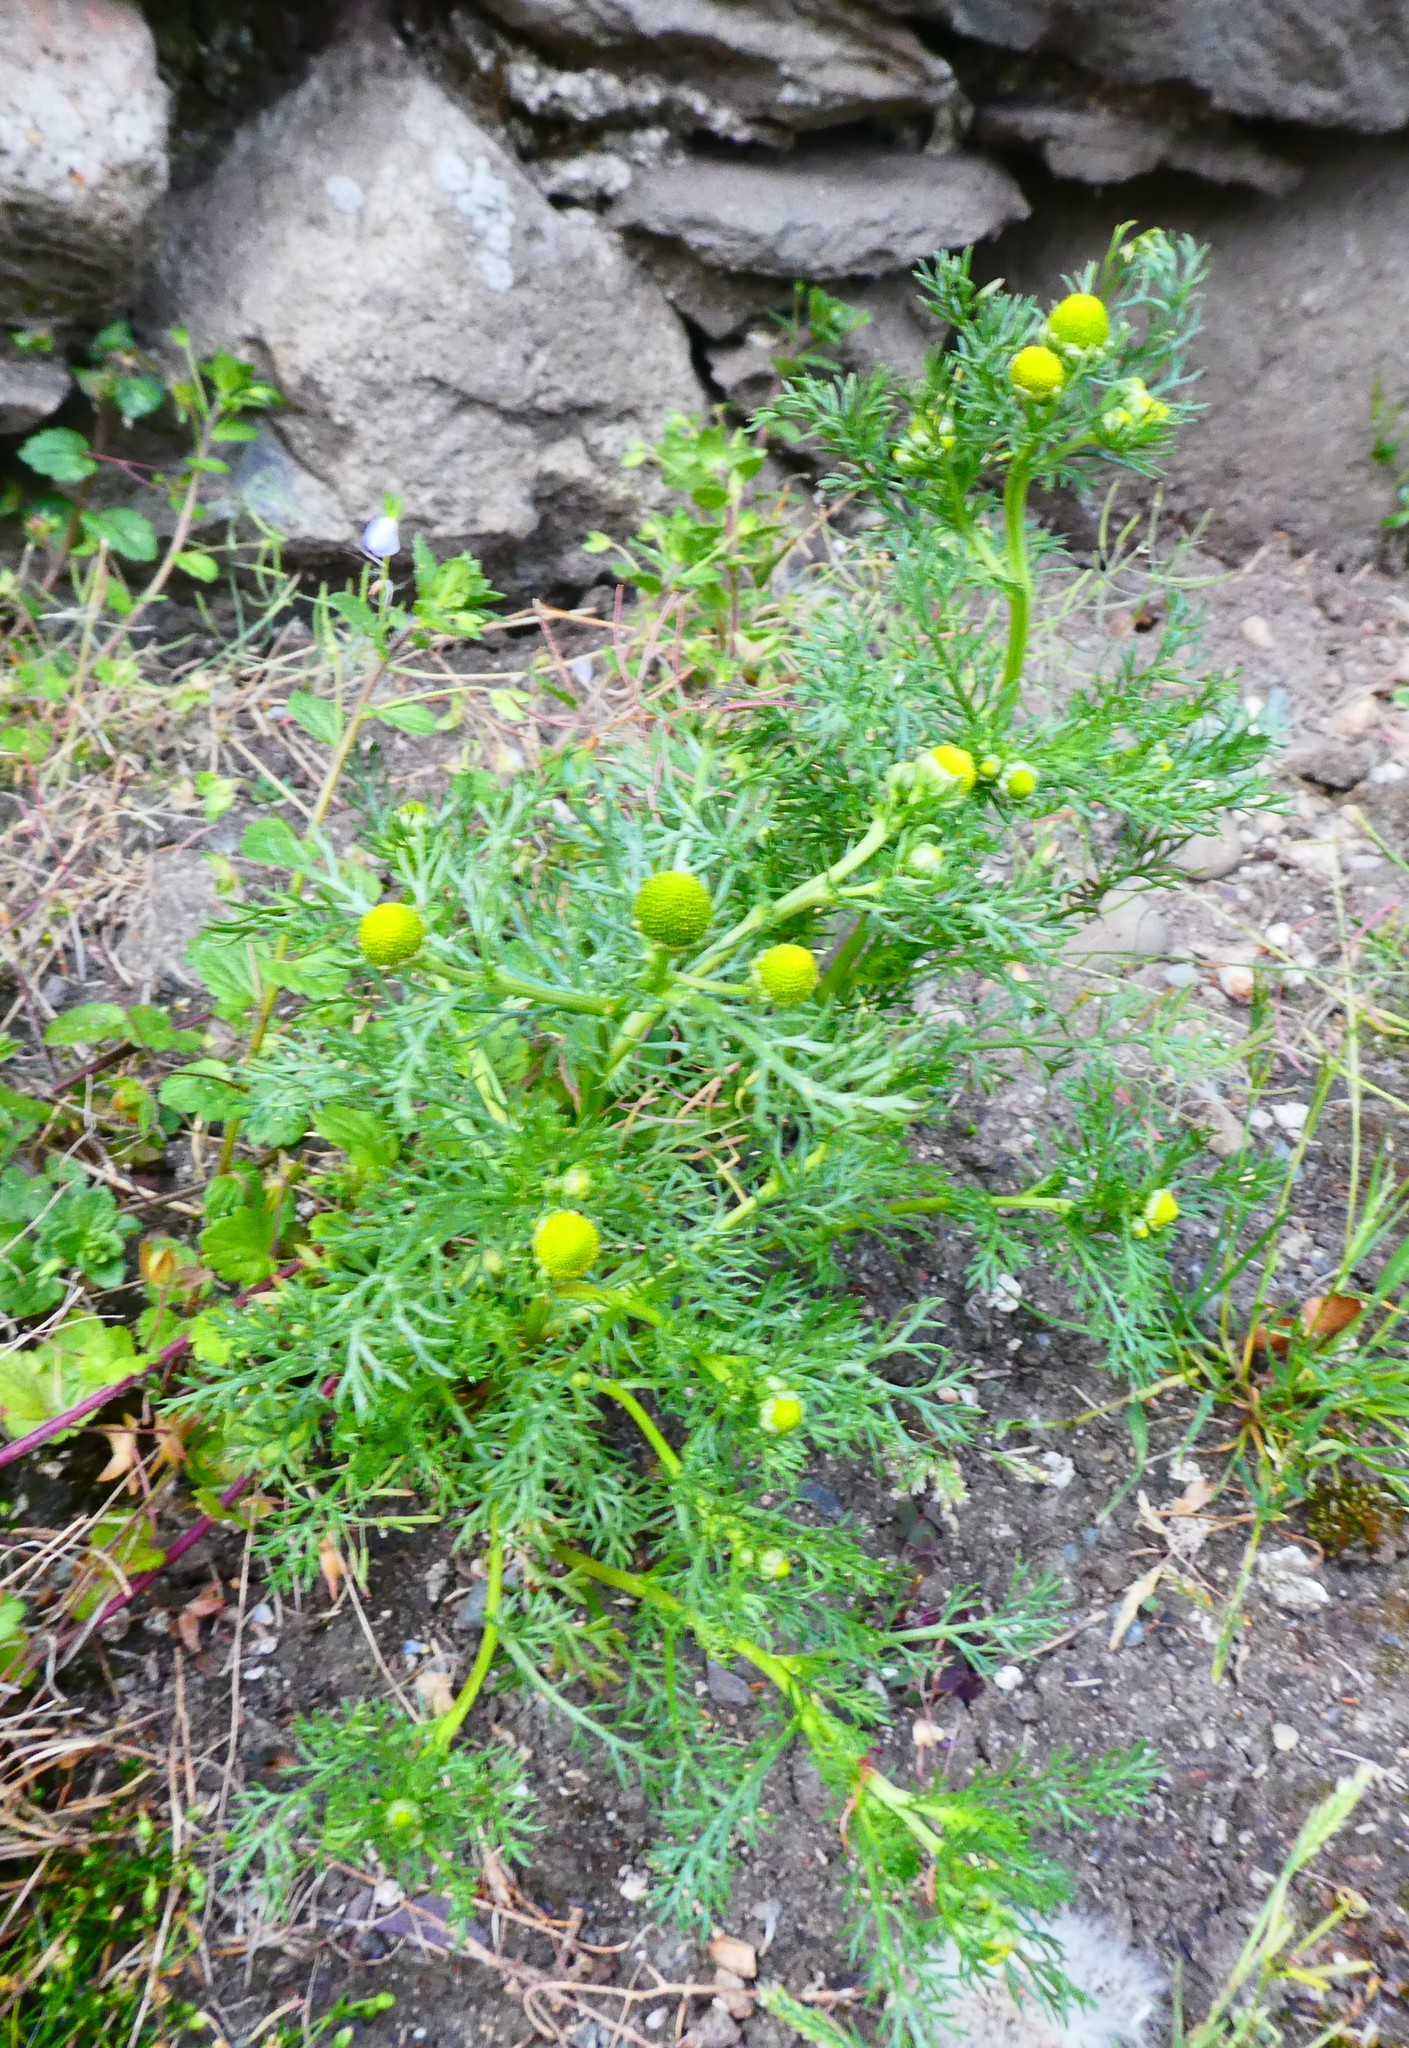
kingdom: Plantae
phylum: Tracheophyta
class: Magnoliopsida
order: Asterales
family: Asteraceae
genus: Matricaria
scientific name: Matricaria discoidea
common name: Disc mayweed
